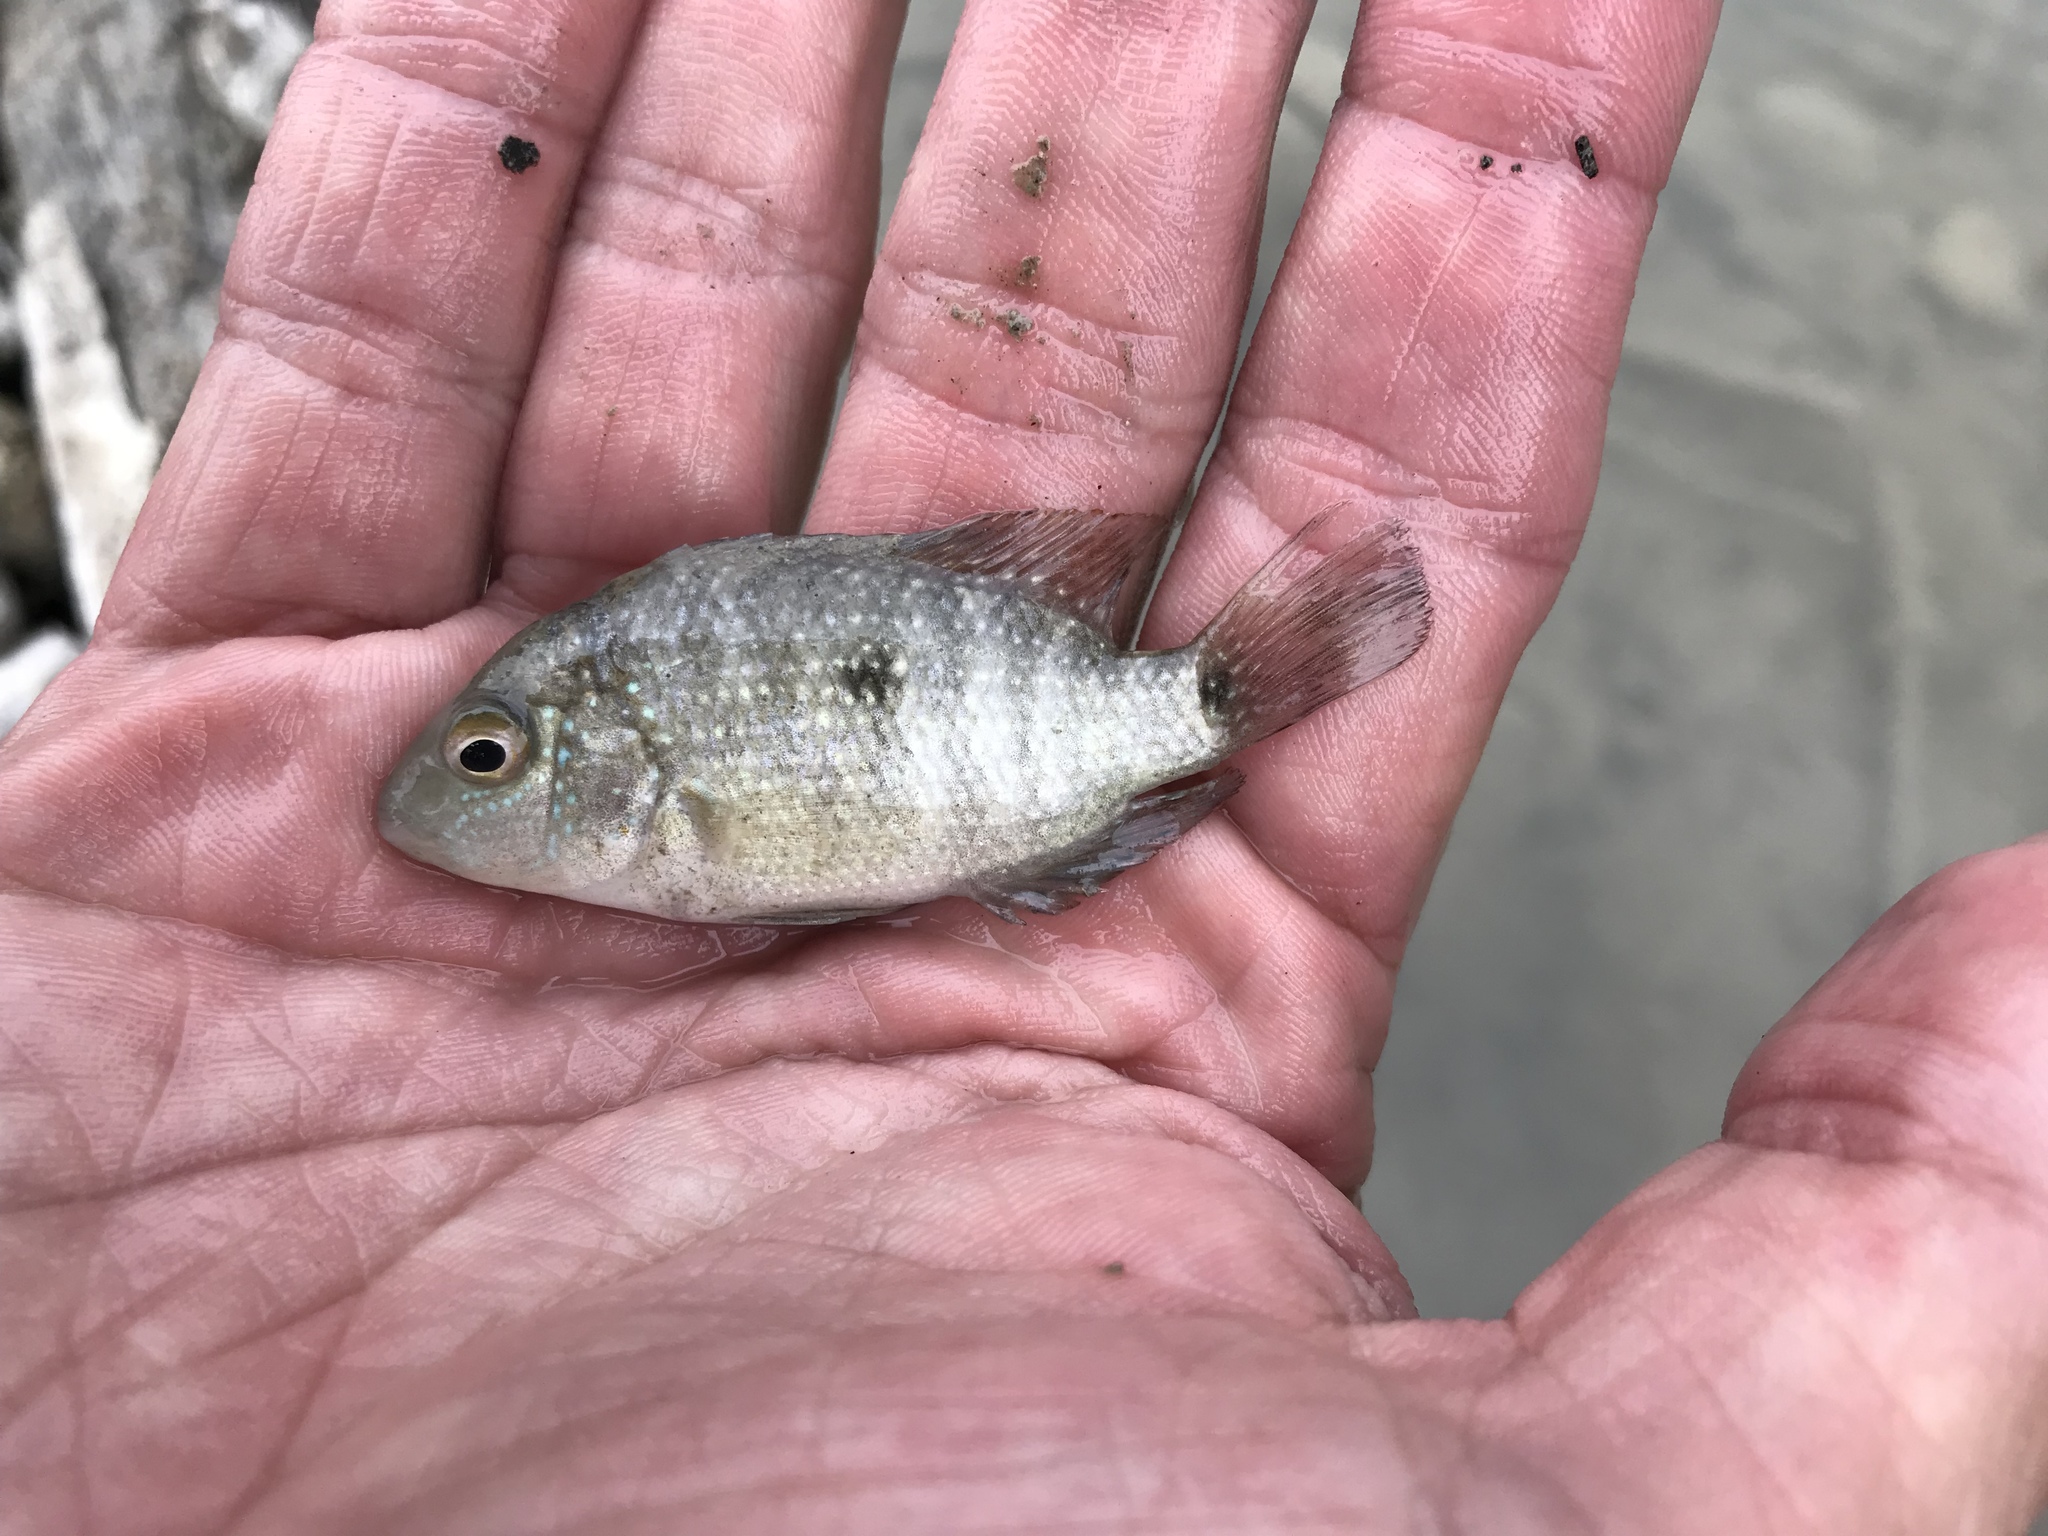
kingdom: Animalia
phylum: Chordata
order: Perciformes
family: Cichlidae
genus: Herichthys
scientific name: Herichthys cyanoguttatus
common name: Rio grande cichlid
